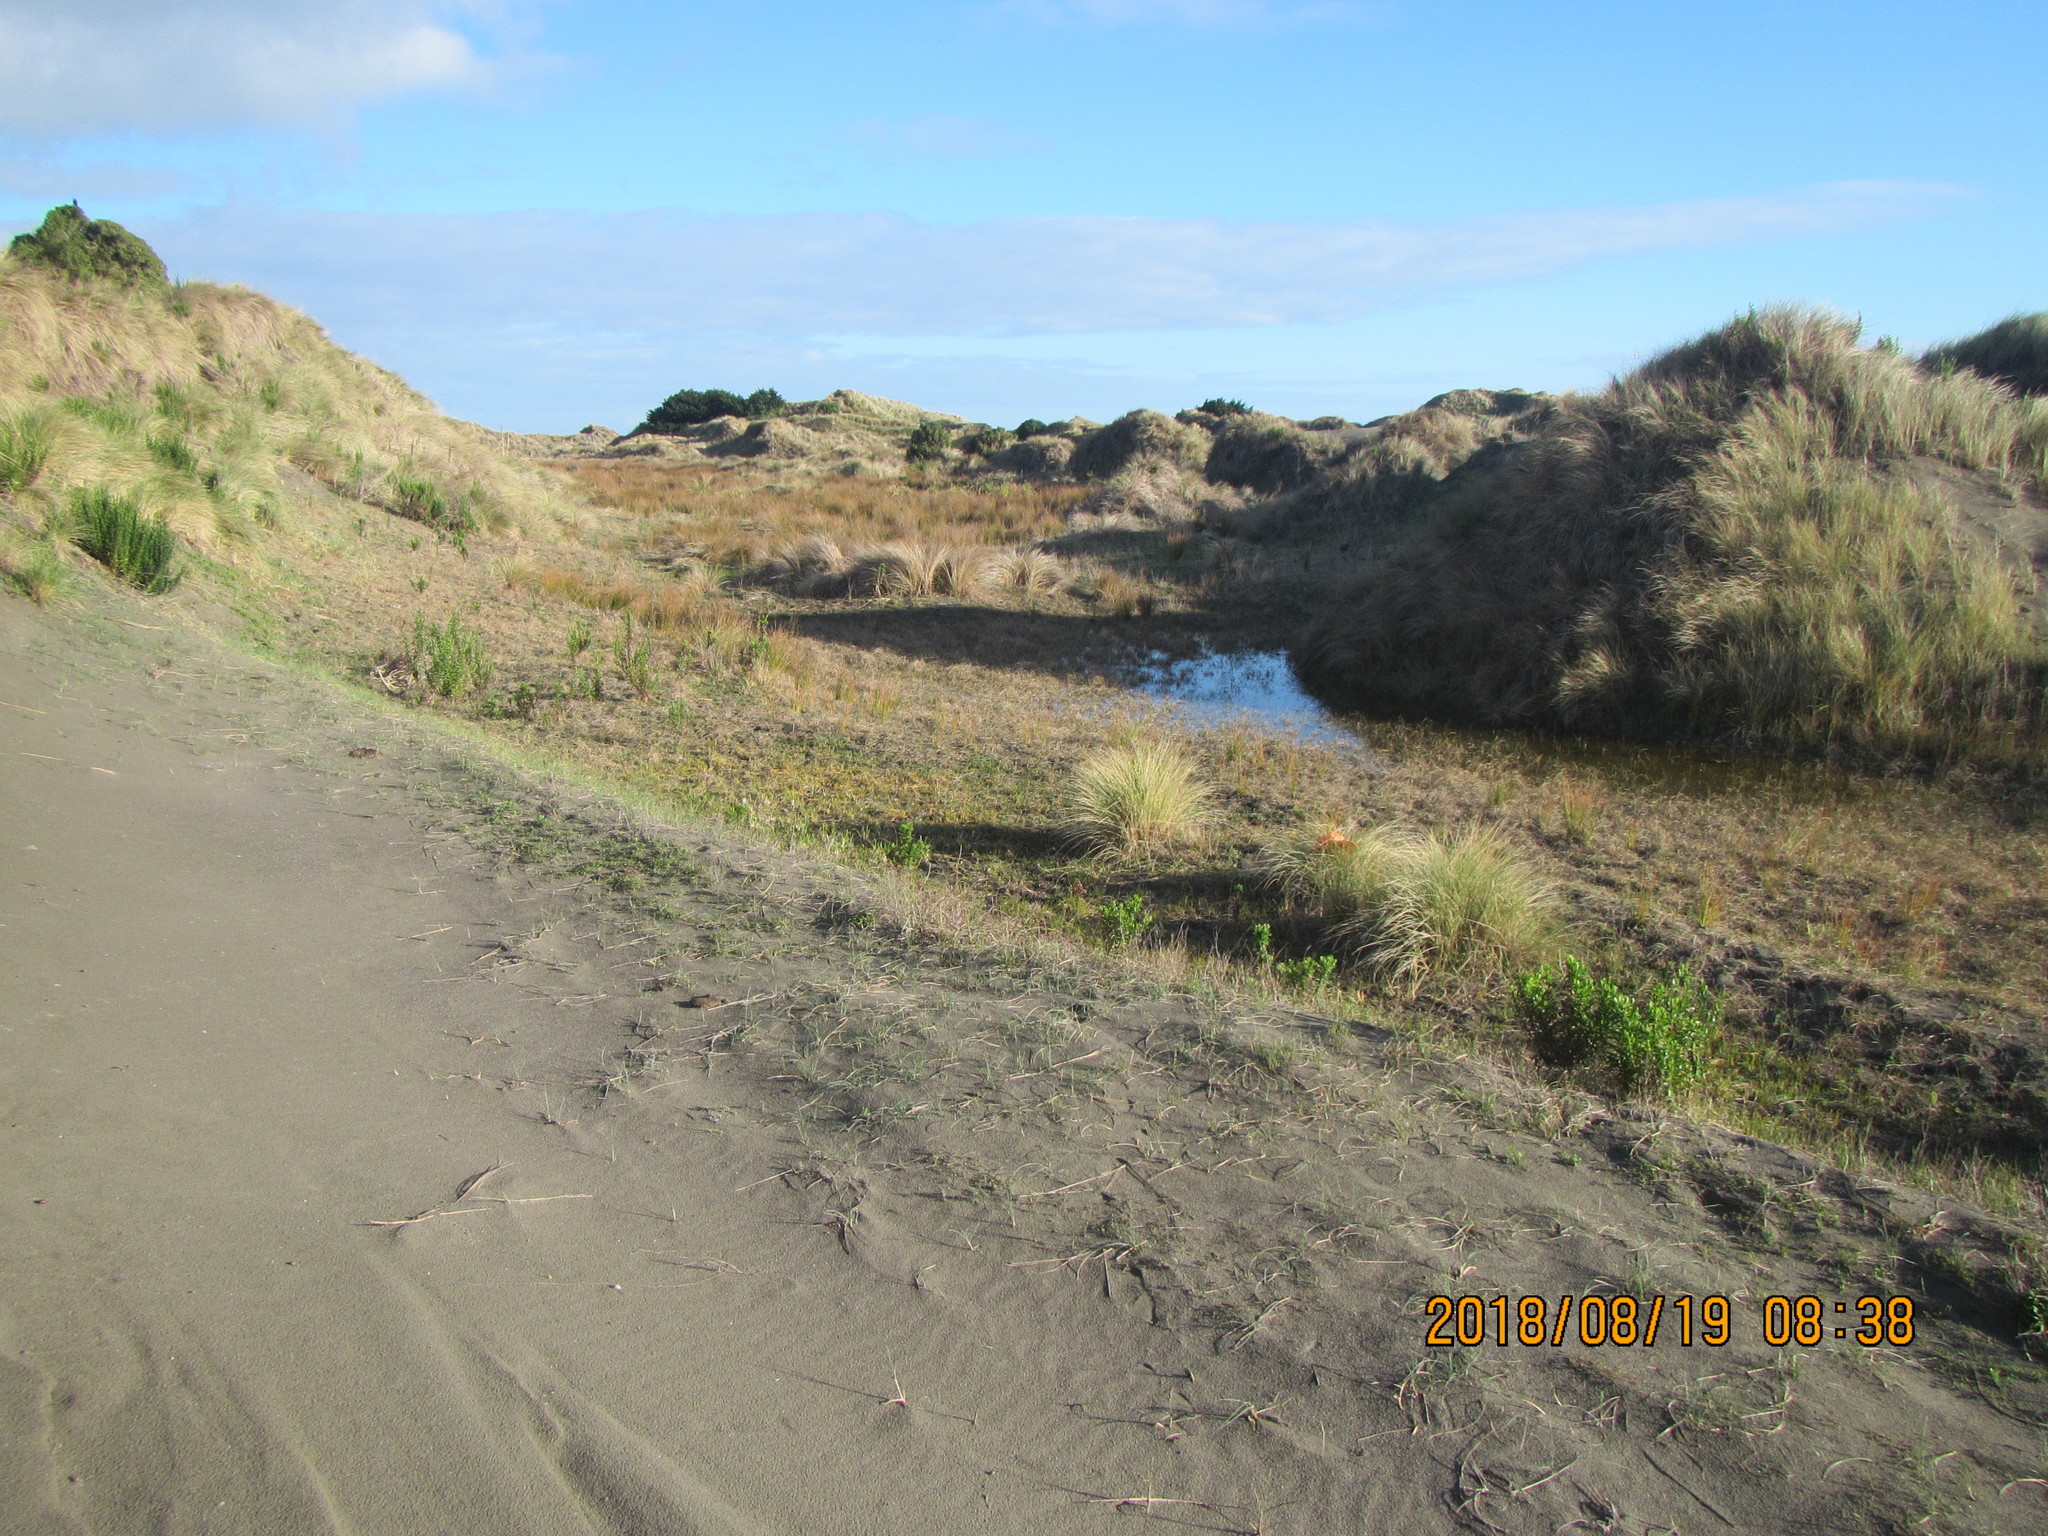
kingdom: Animalia
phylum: Mollusca
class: Gastropoda
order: Stylommatophora
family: Helicidae
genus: Cornu
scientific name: Cornu aspersum
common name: Brown garden snail
